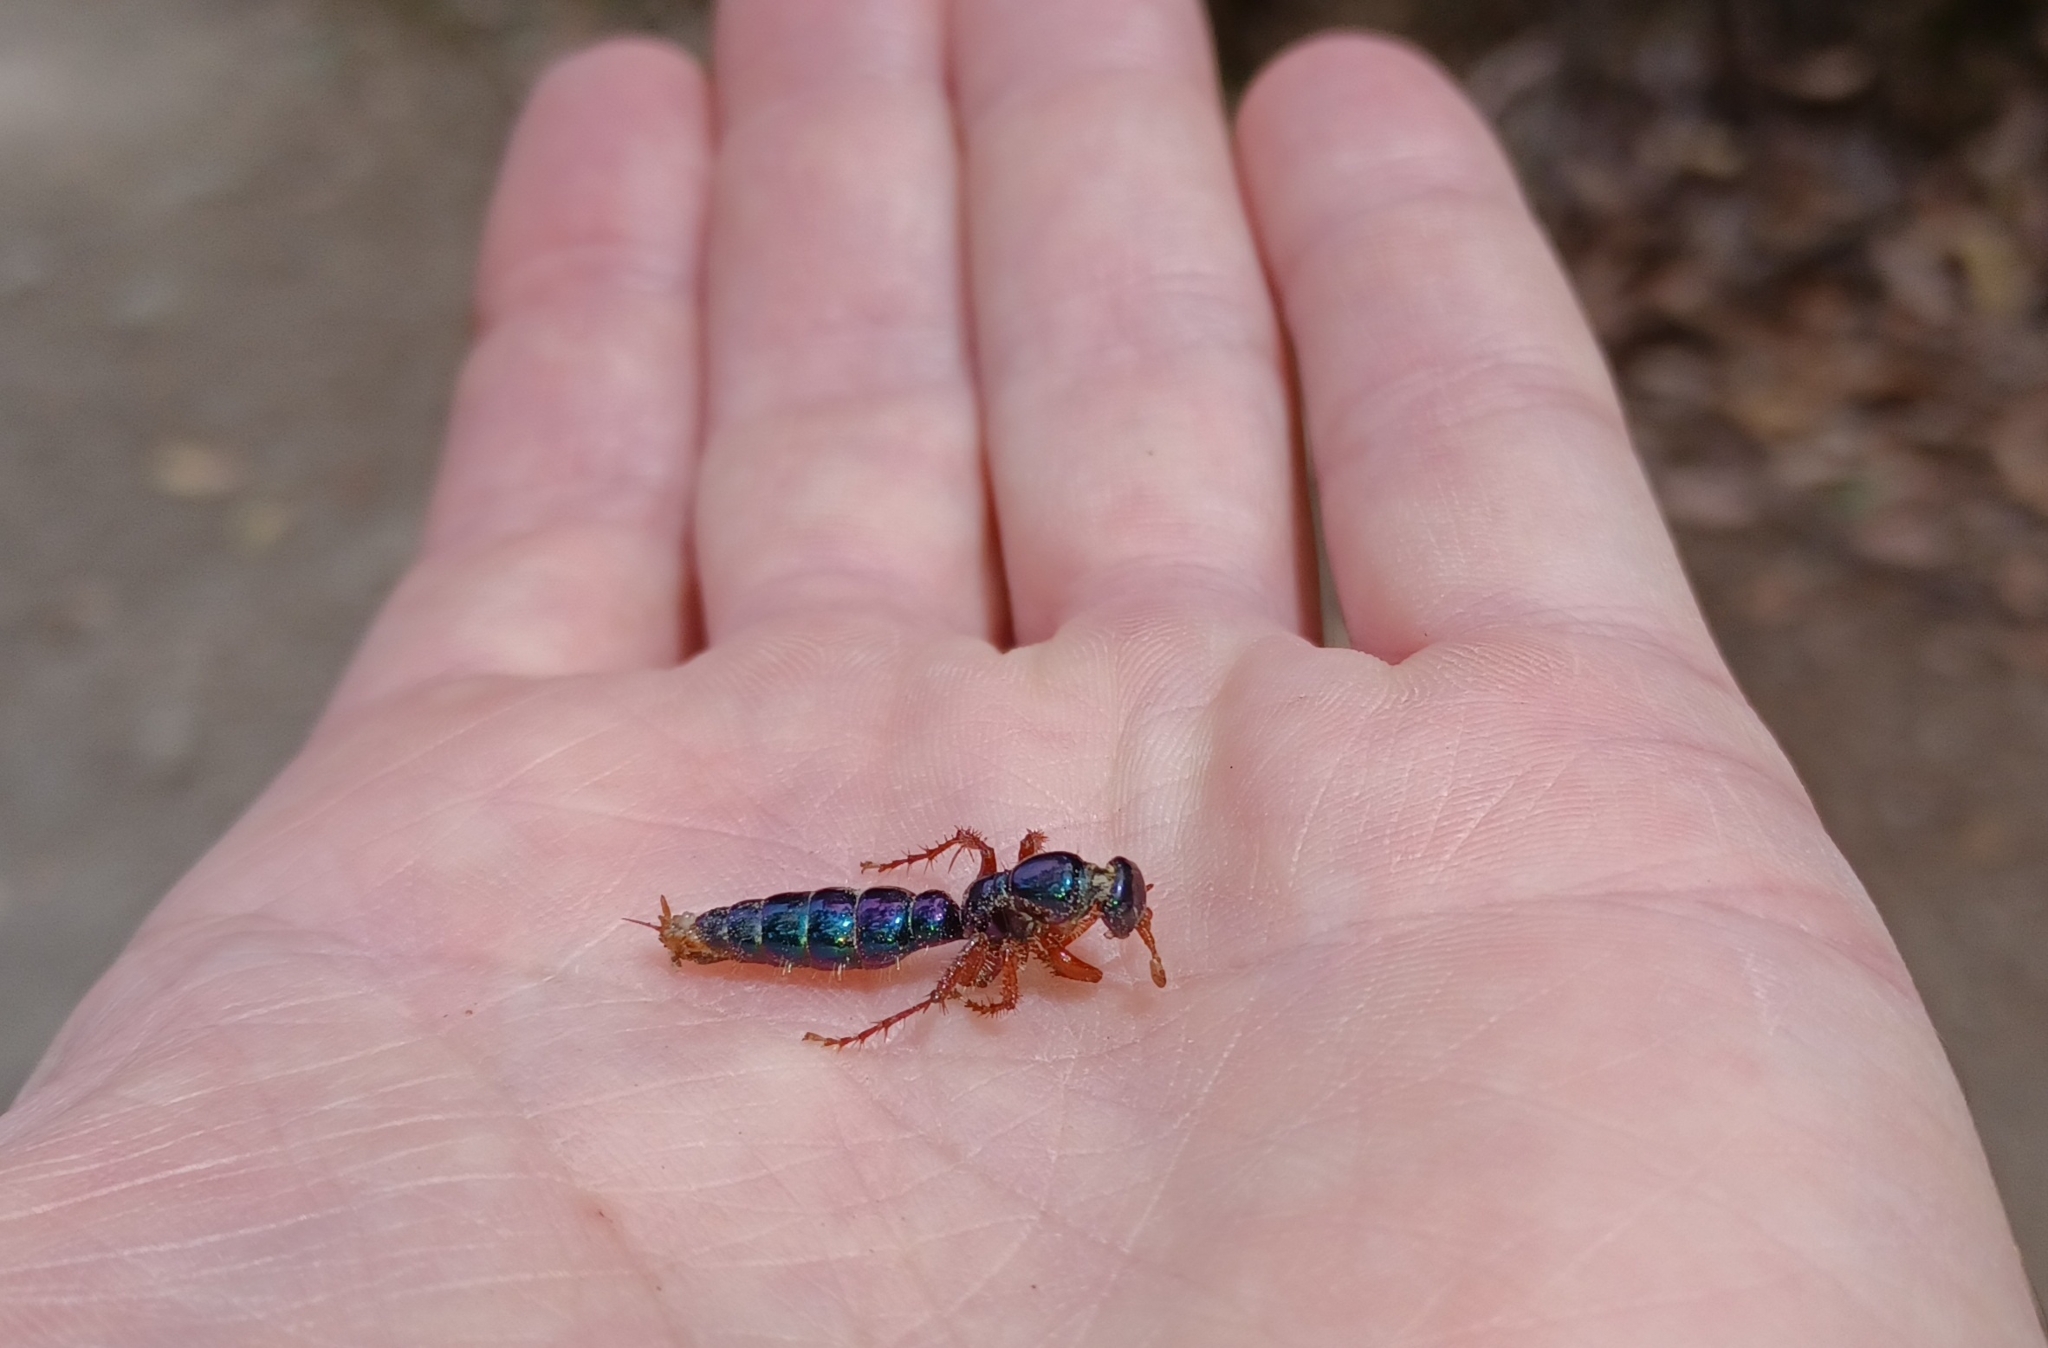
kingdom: Animalia
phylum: Arthropoda
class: Insecta
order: Hymenoptera
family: Tiphiidae
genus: Diamma
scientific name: Diamma
